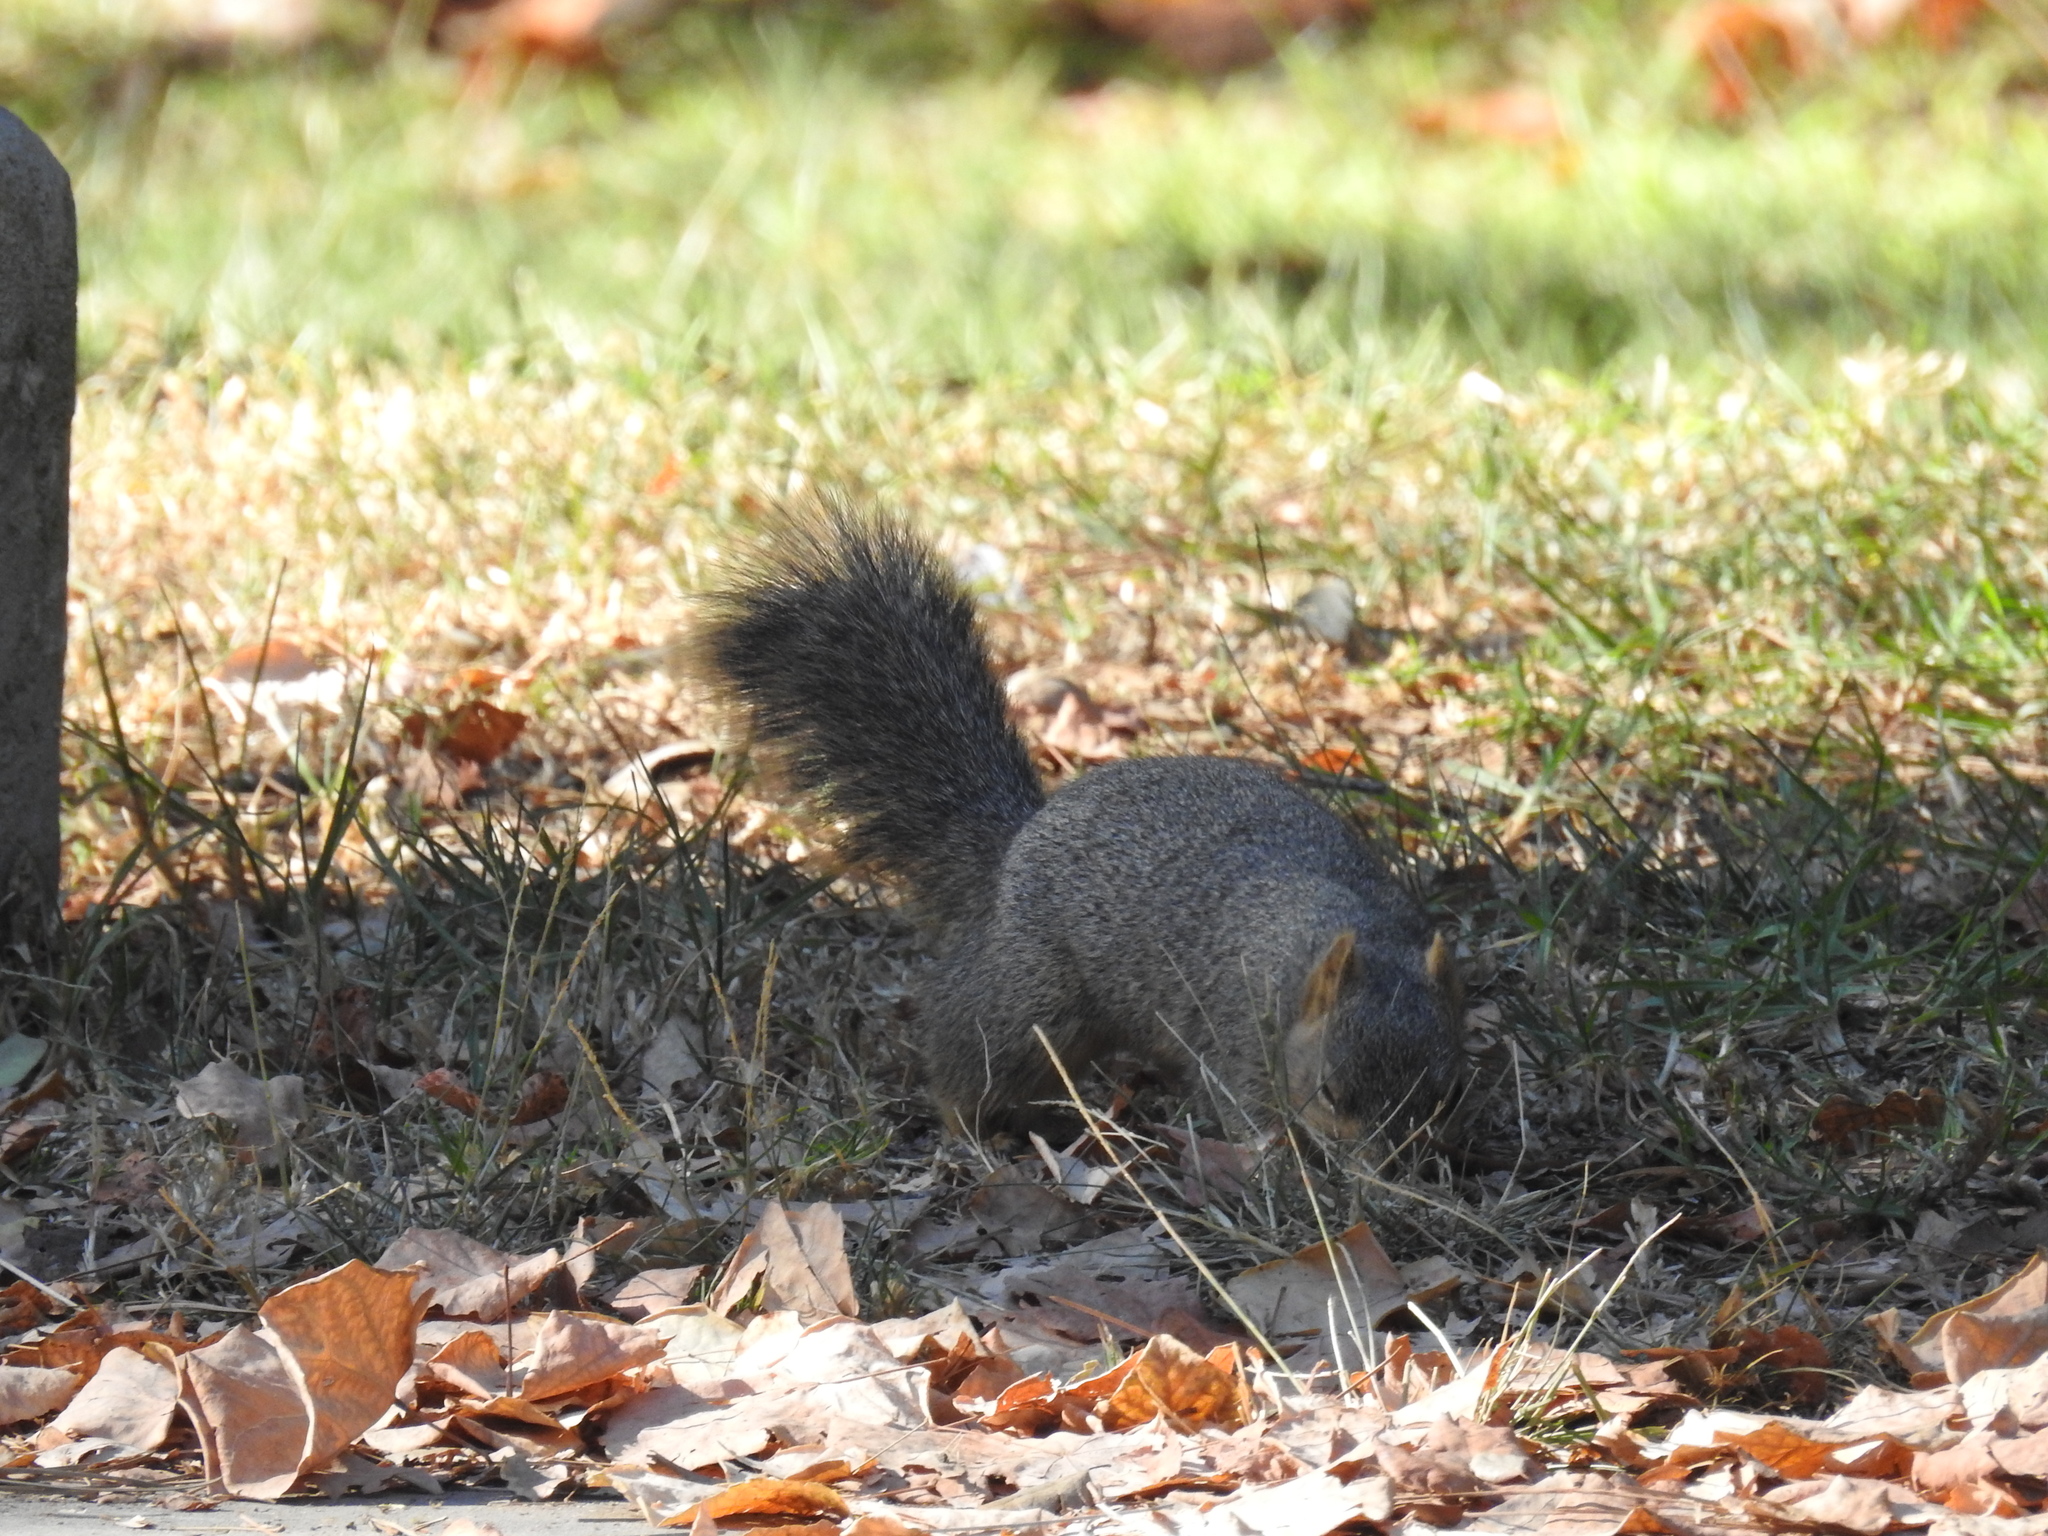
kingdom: Animalia
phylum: Chordata
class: Mammalia
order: Rodentia
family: Sciuridae
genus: Sciurus
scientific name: Sciurus niger
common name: Fox squirrel
